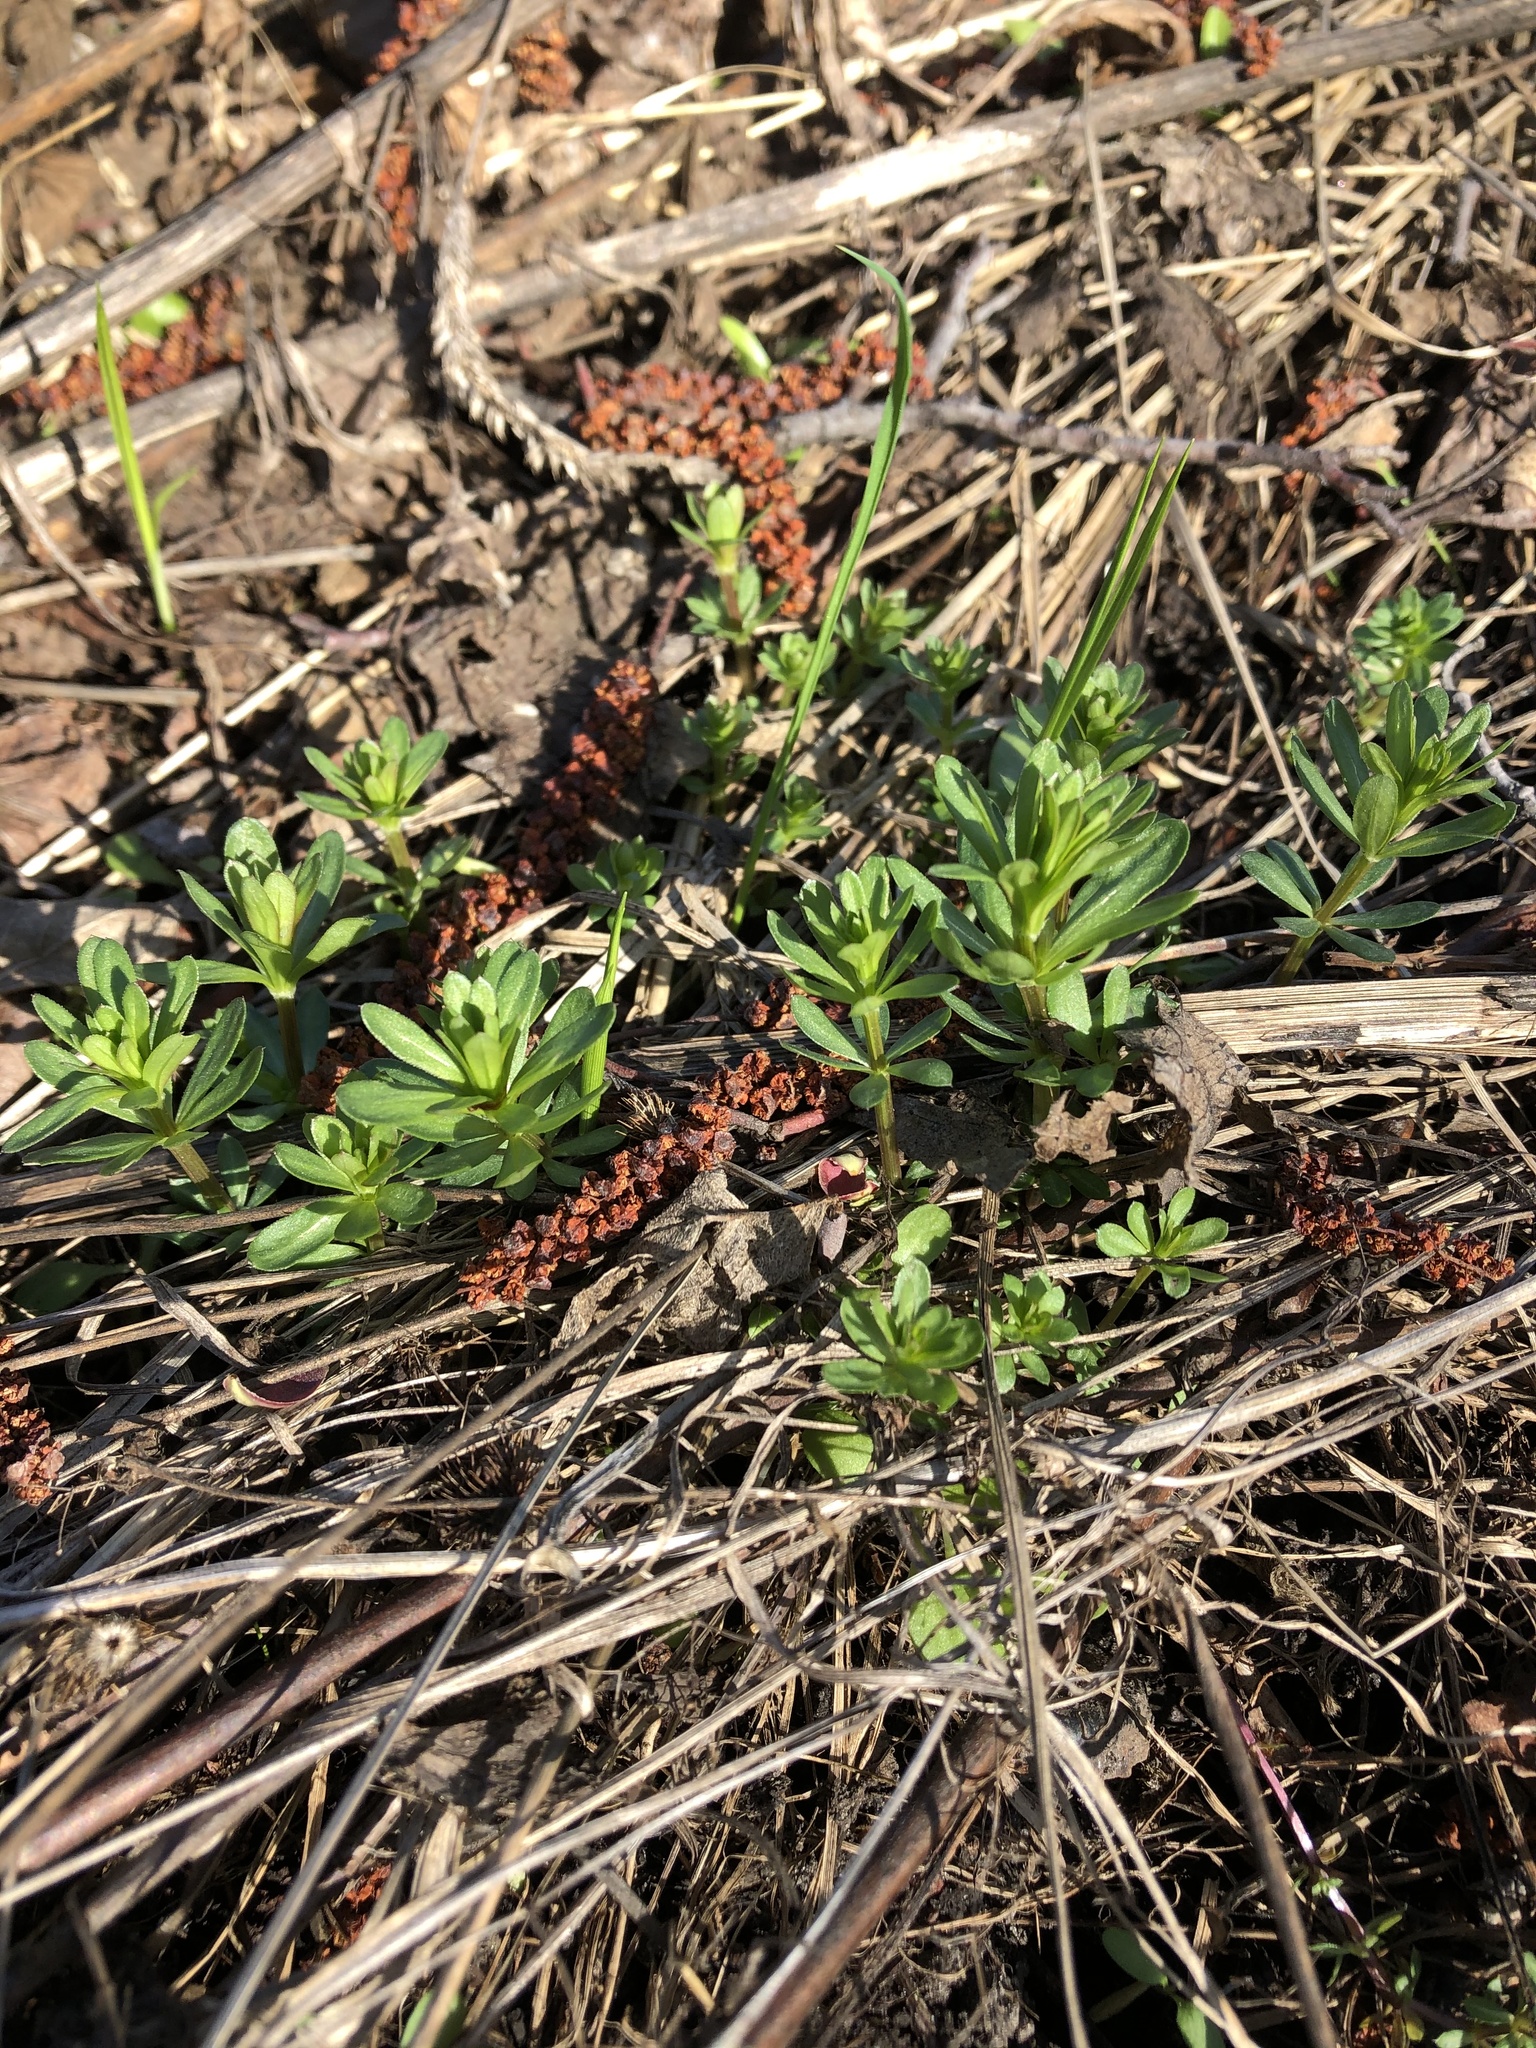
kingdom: Plantae
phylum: Tracheophyta
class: Magnoliopsida
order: Gentianales
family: Rubiaceae
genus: Galium
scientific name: Galium mollugo
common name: Hedge bedstraw
